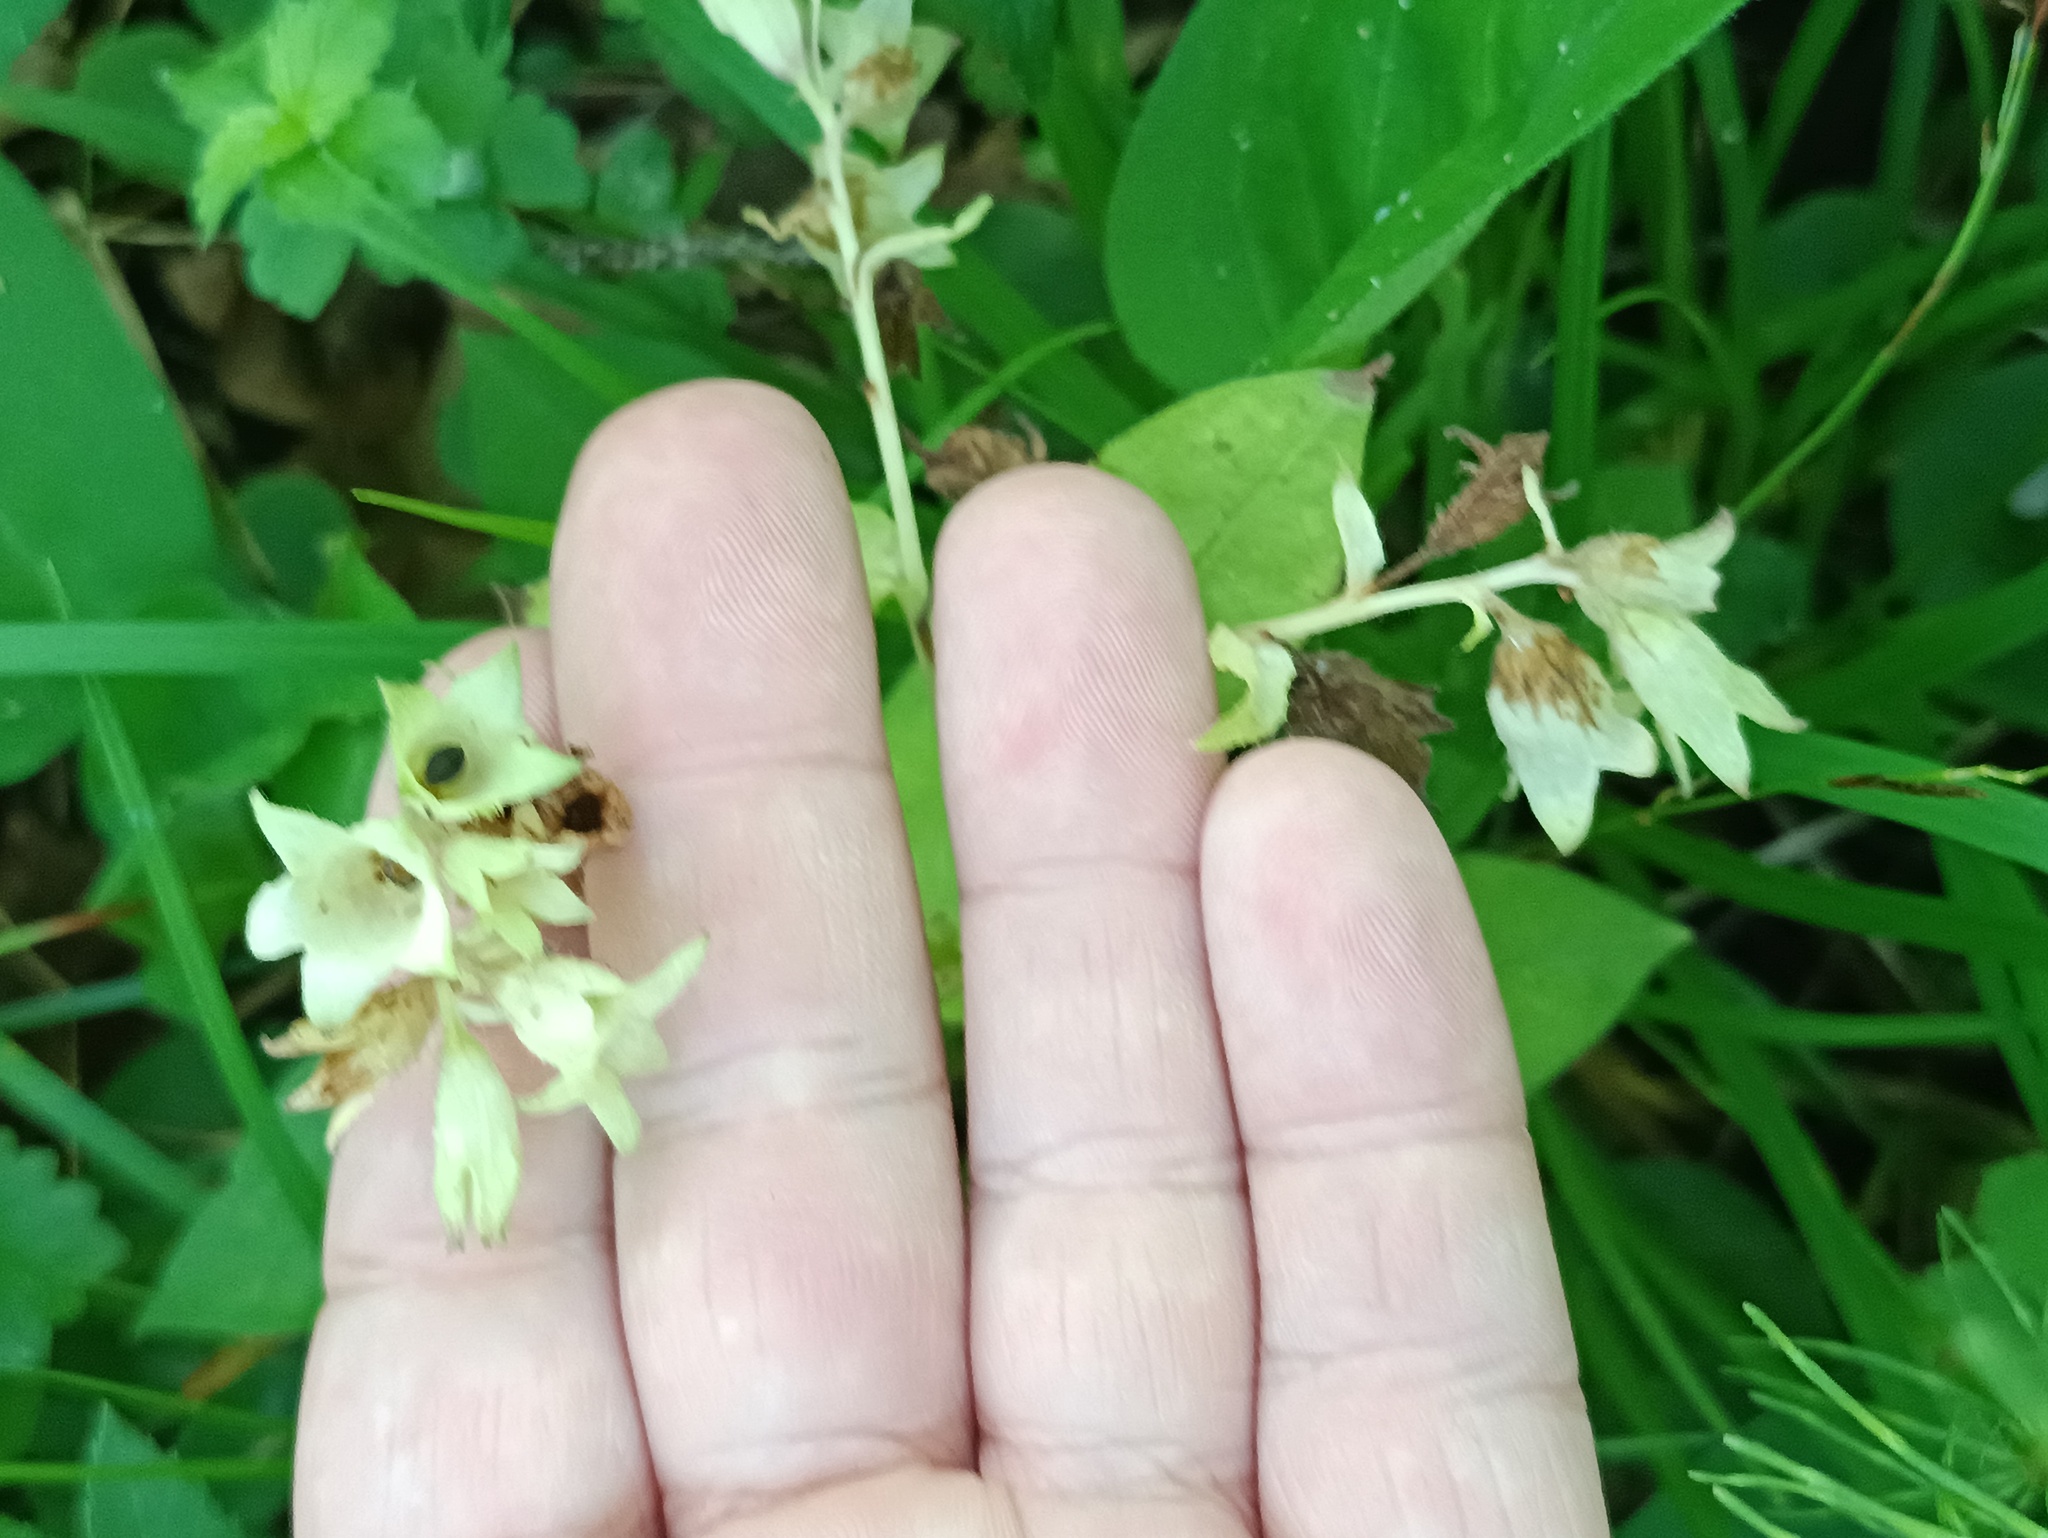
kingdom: Plantae
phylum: Tracheophyta
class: Magnoliopsida
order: Boraginales
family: Boraginaceae
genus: Pulmonaria
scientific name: Pulmonaria obscura
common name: Suffolk lungwort
